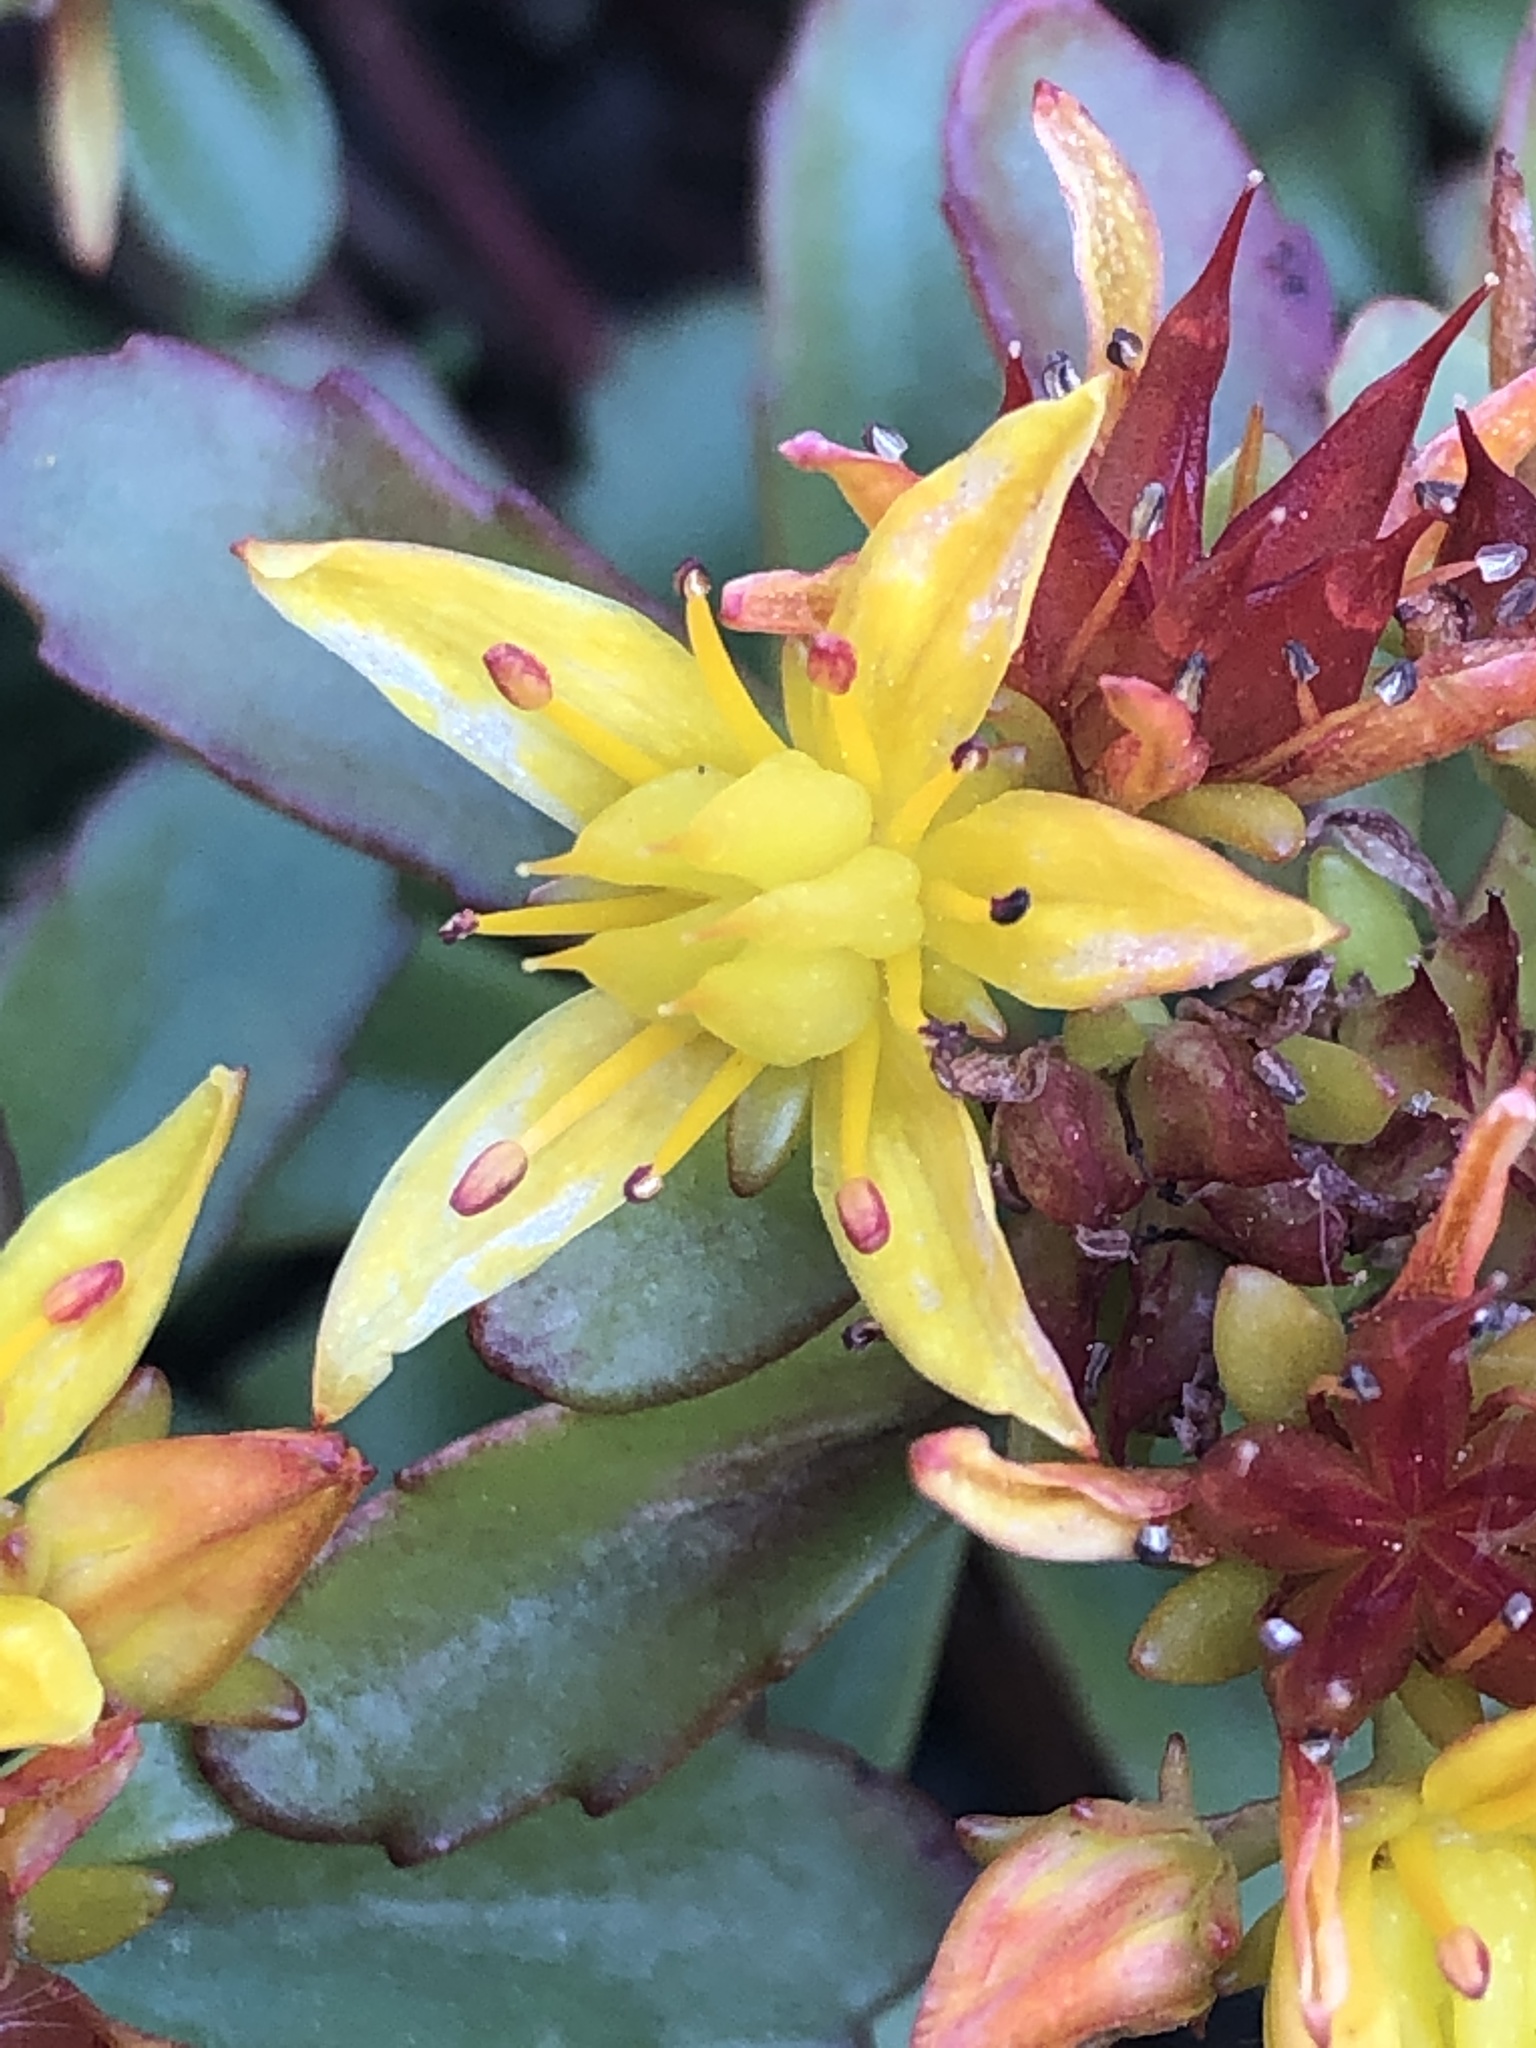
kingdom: Plantae
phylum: Tracheophyta
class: Magnoliopsida
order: Saxifragales
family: Crassulaceae
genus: Phedimus
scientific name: Phedimus kamtschaticus
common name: Orange stonecrop
